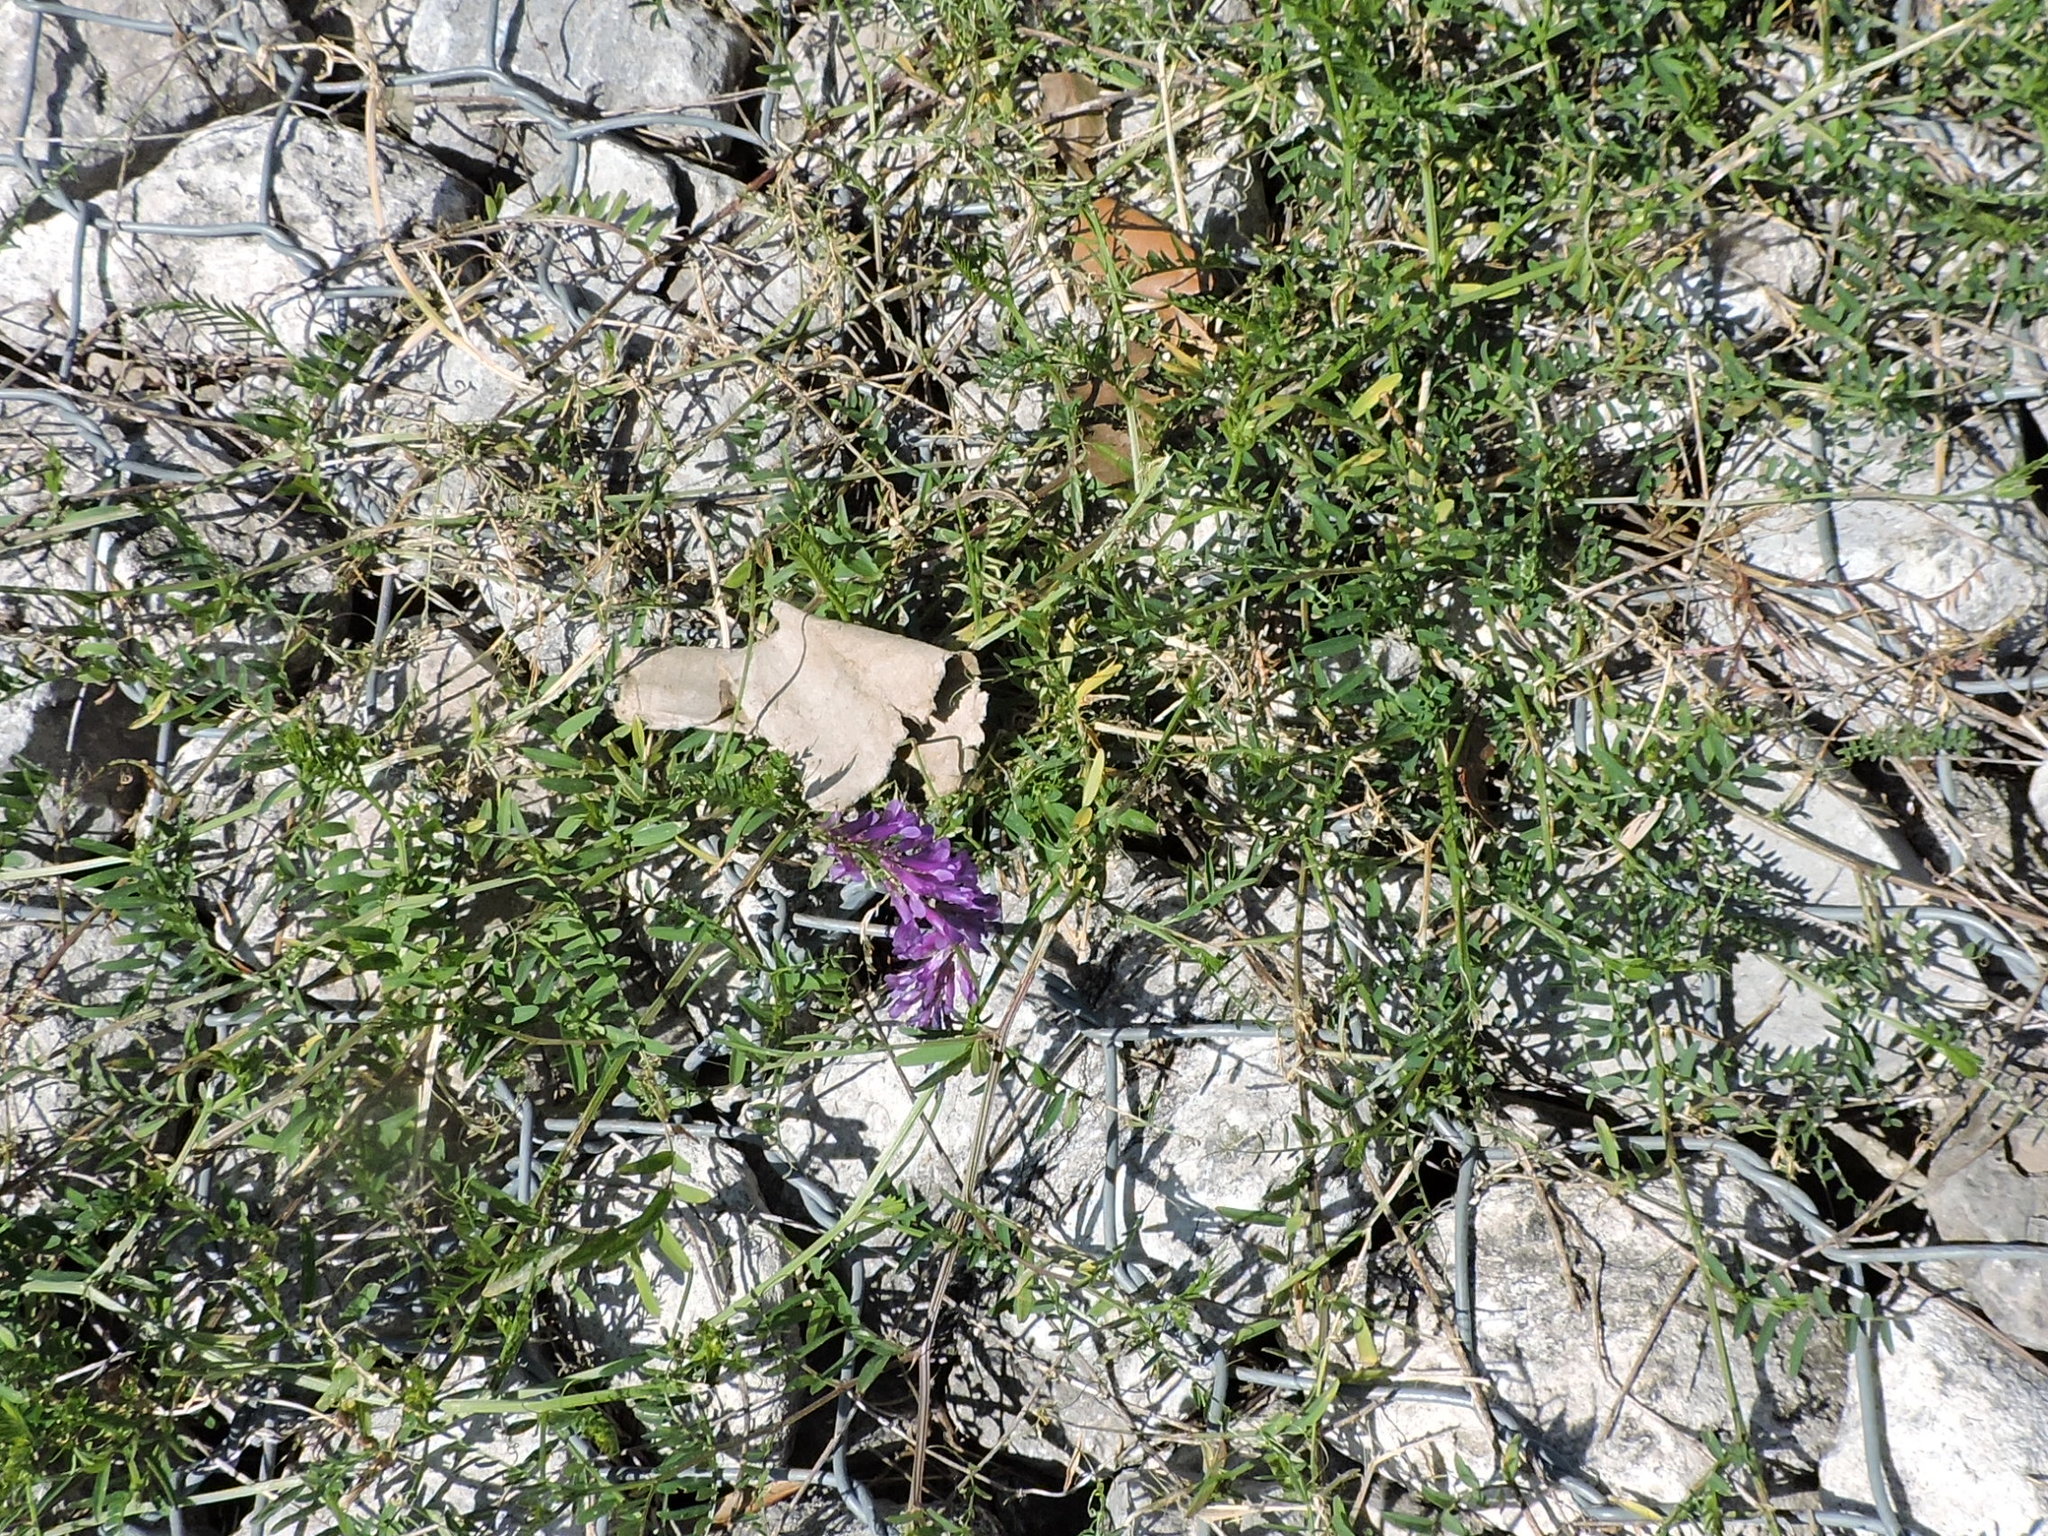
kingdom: Plantae
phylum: Tracheophyta
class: Magnoliopsida
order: Fabales
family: Fabaceae
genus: Vicia
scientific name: Vicia villosa
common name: Fodder vetch
